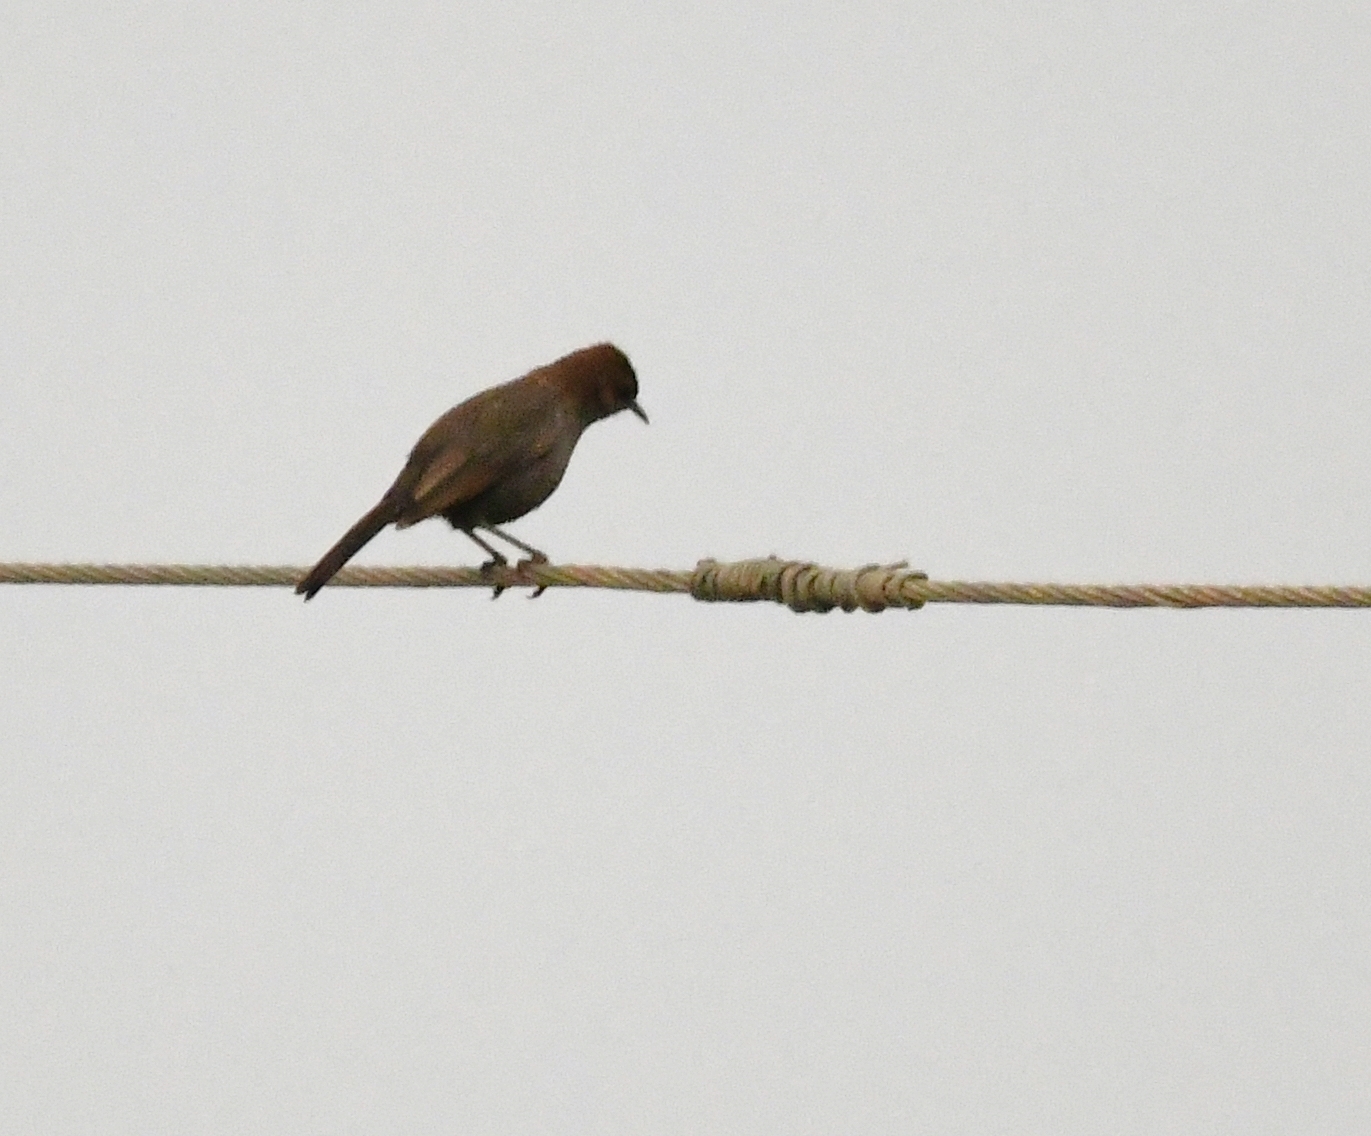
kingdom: Animalia
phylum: Chordata
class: Aves
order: Passeriformes
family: Muscicapidae
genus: Saxicoloides
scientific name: Saxicoloides fulicatus
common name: Indian robin
